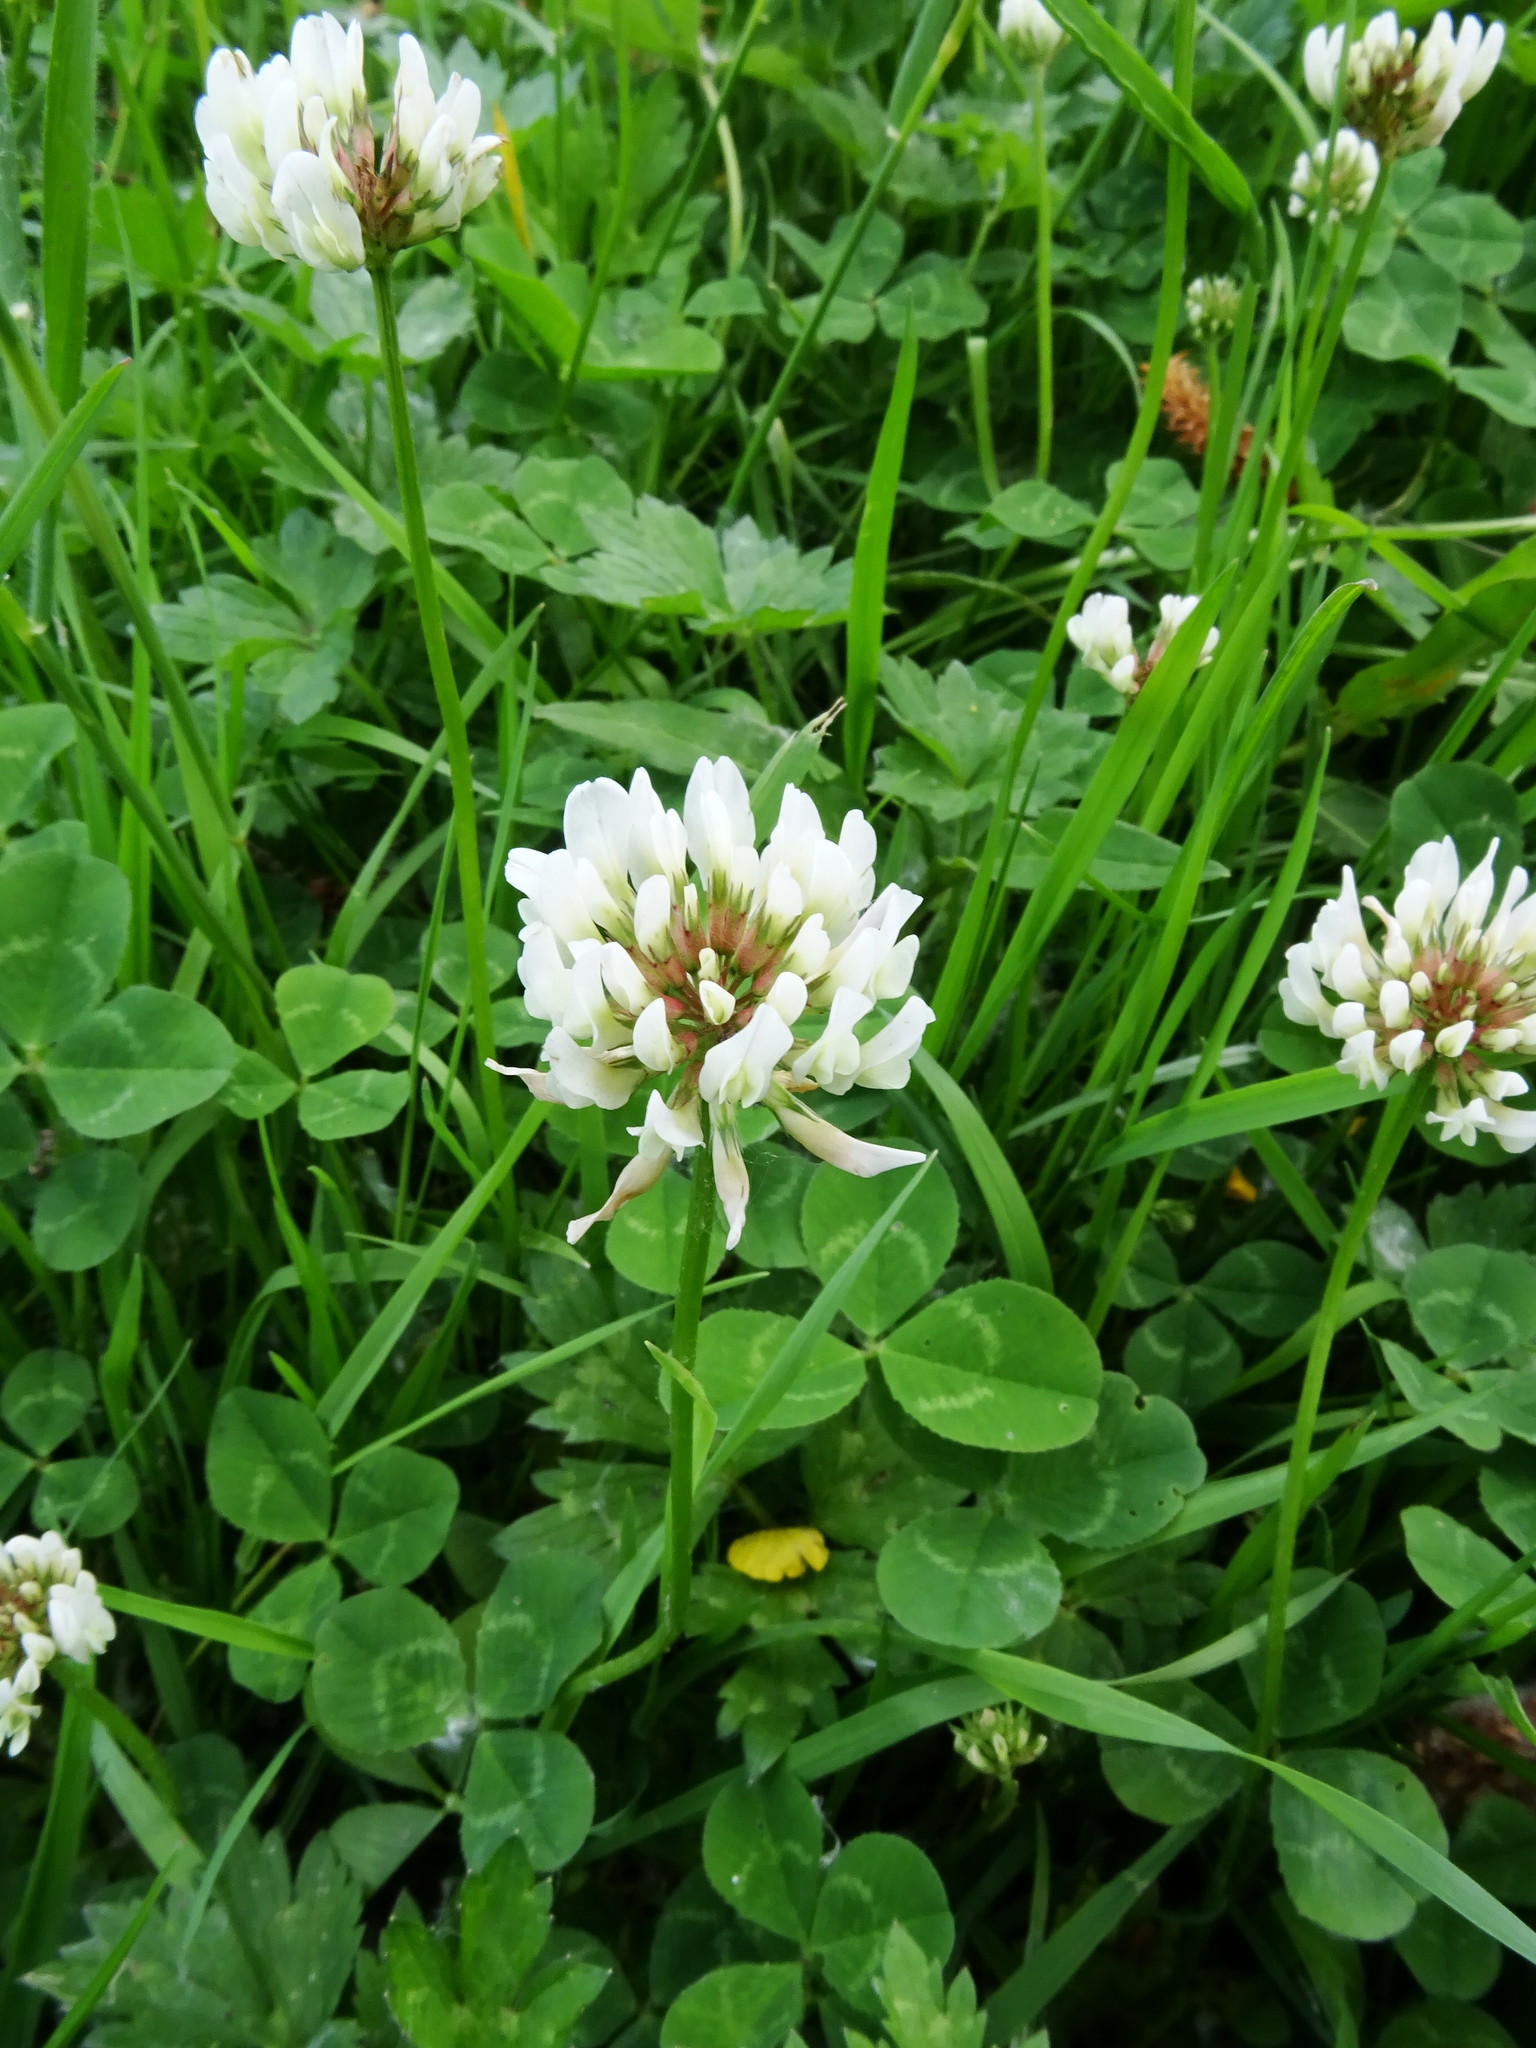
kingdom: Plantae
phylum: Tracheophyta
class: Magnoliopsida
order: Fabales
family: Fabaceae
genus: Trifolium
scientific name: Trifolium repens
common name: White clover
